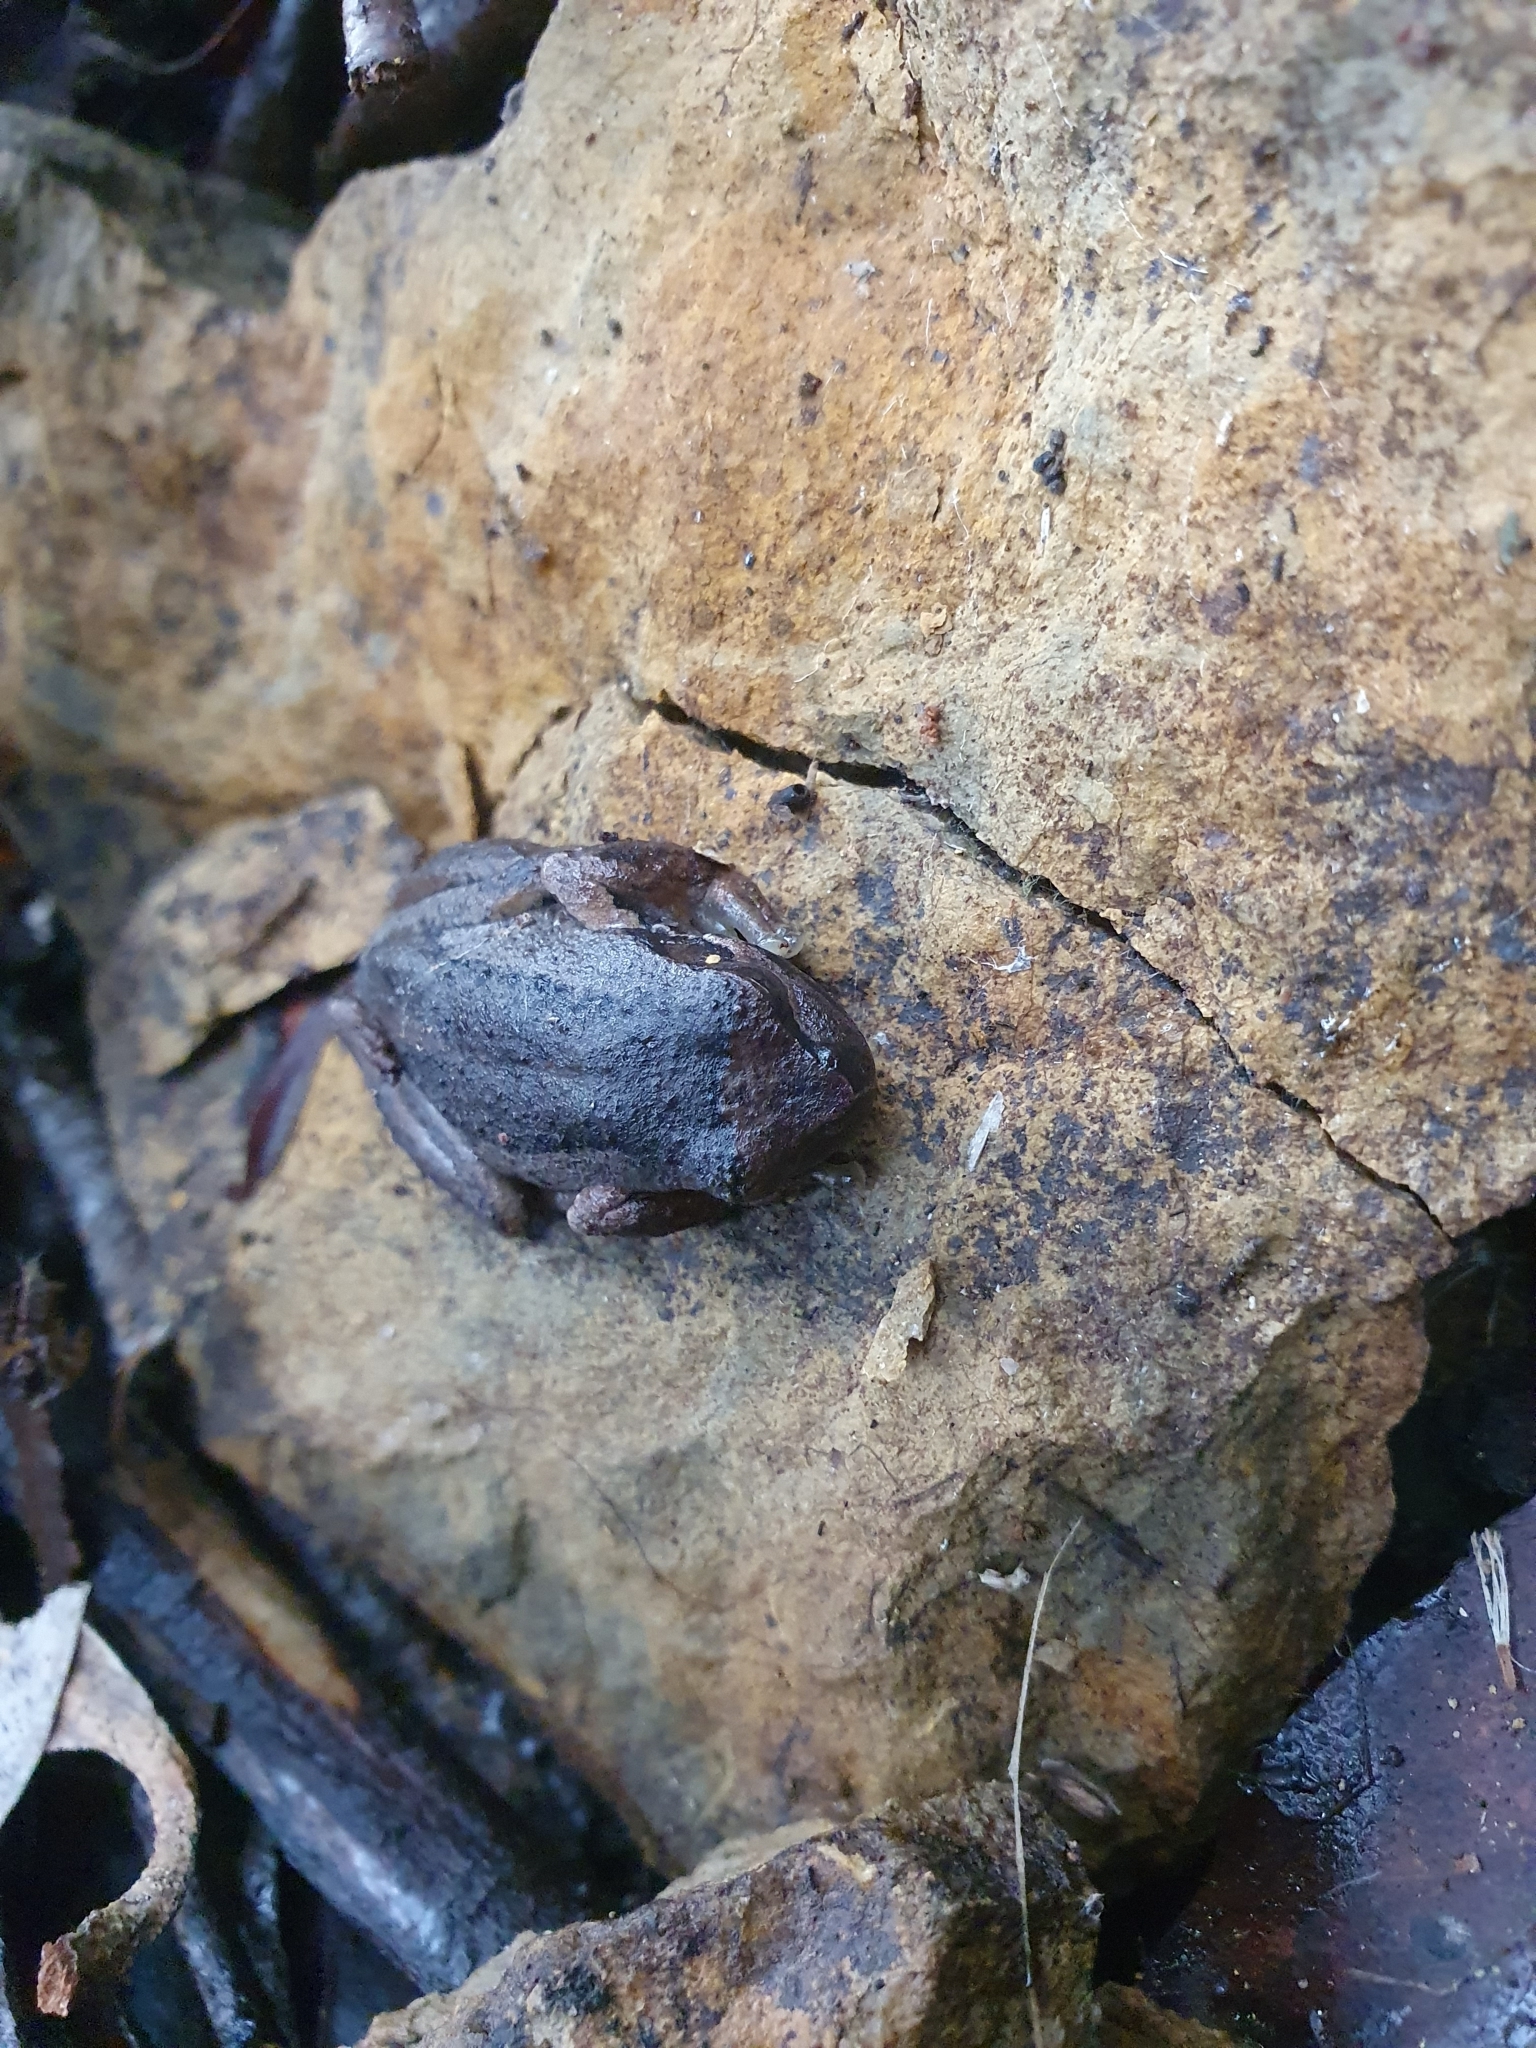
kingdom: Animalia
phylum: Chordata
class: Amphibia
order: Anura
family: Pelodryadidae
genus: Litoria
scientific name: Litoria ewingii
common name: Southern brown tree frog
